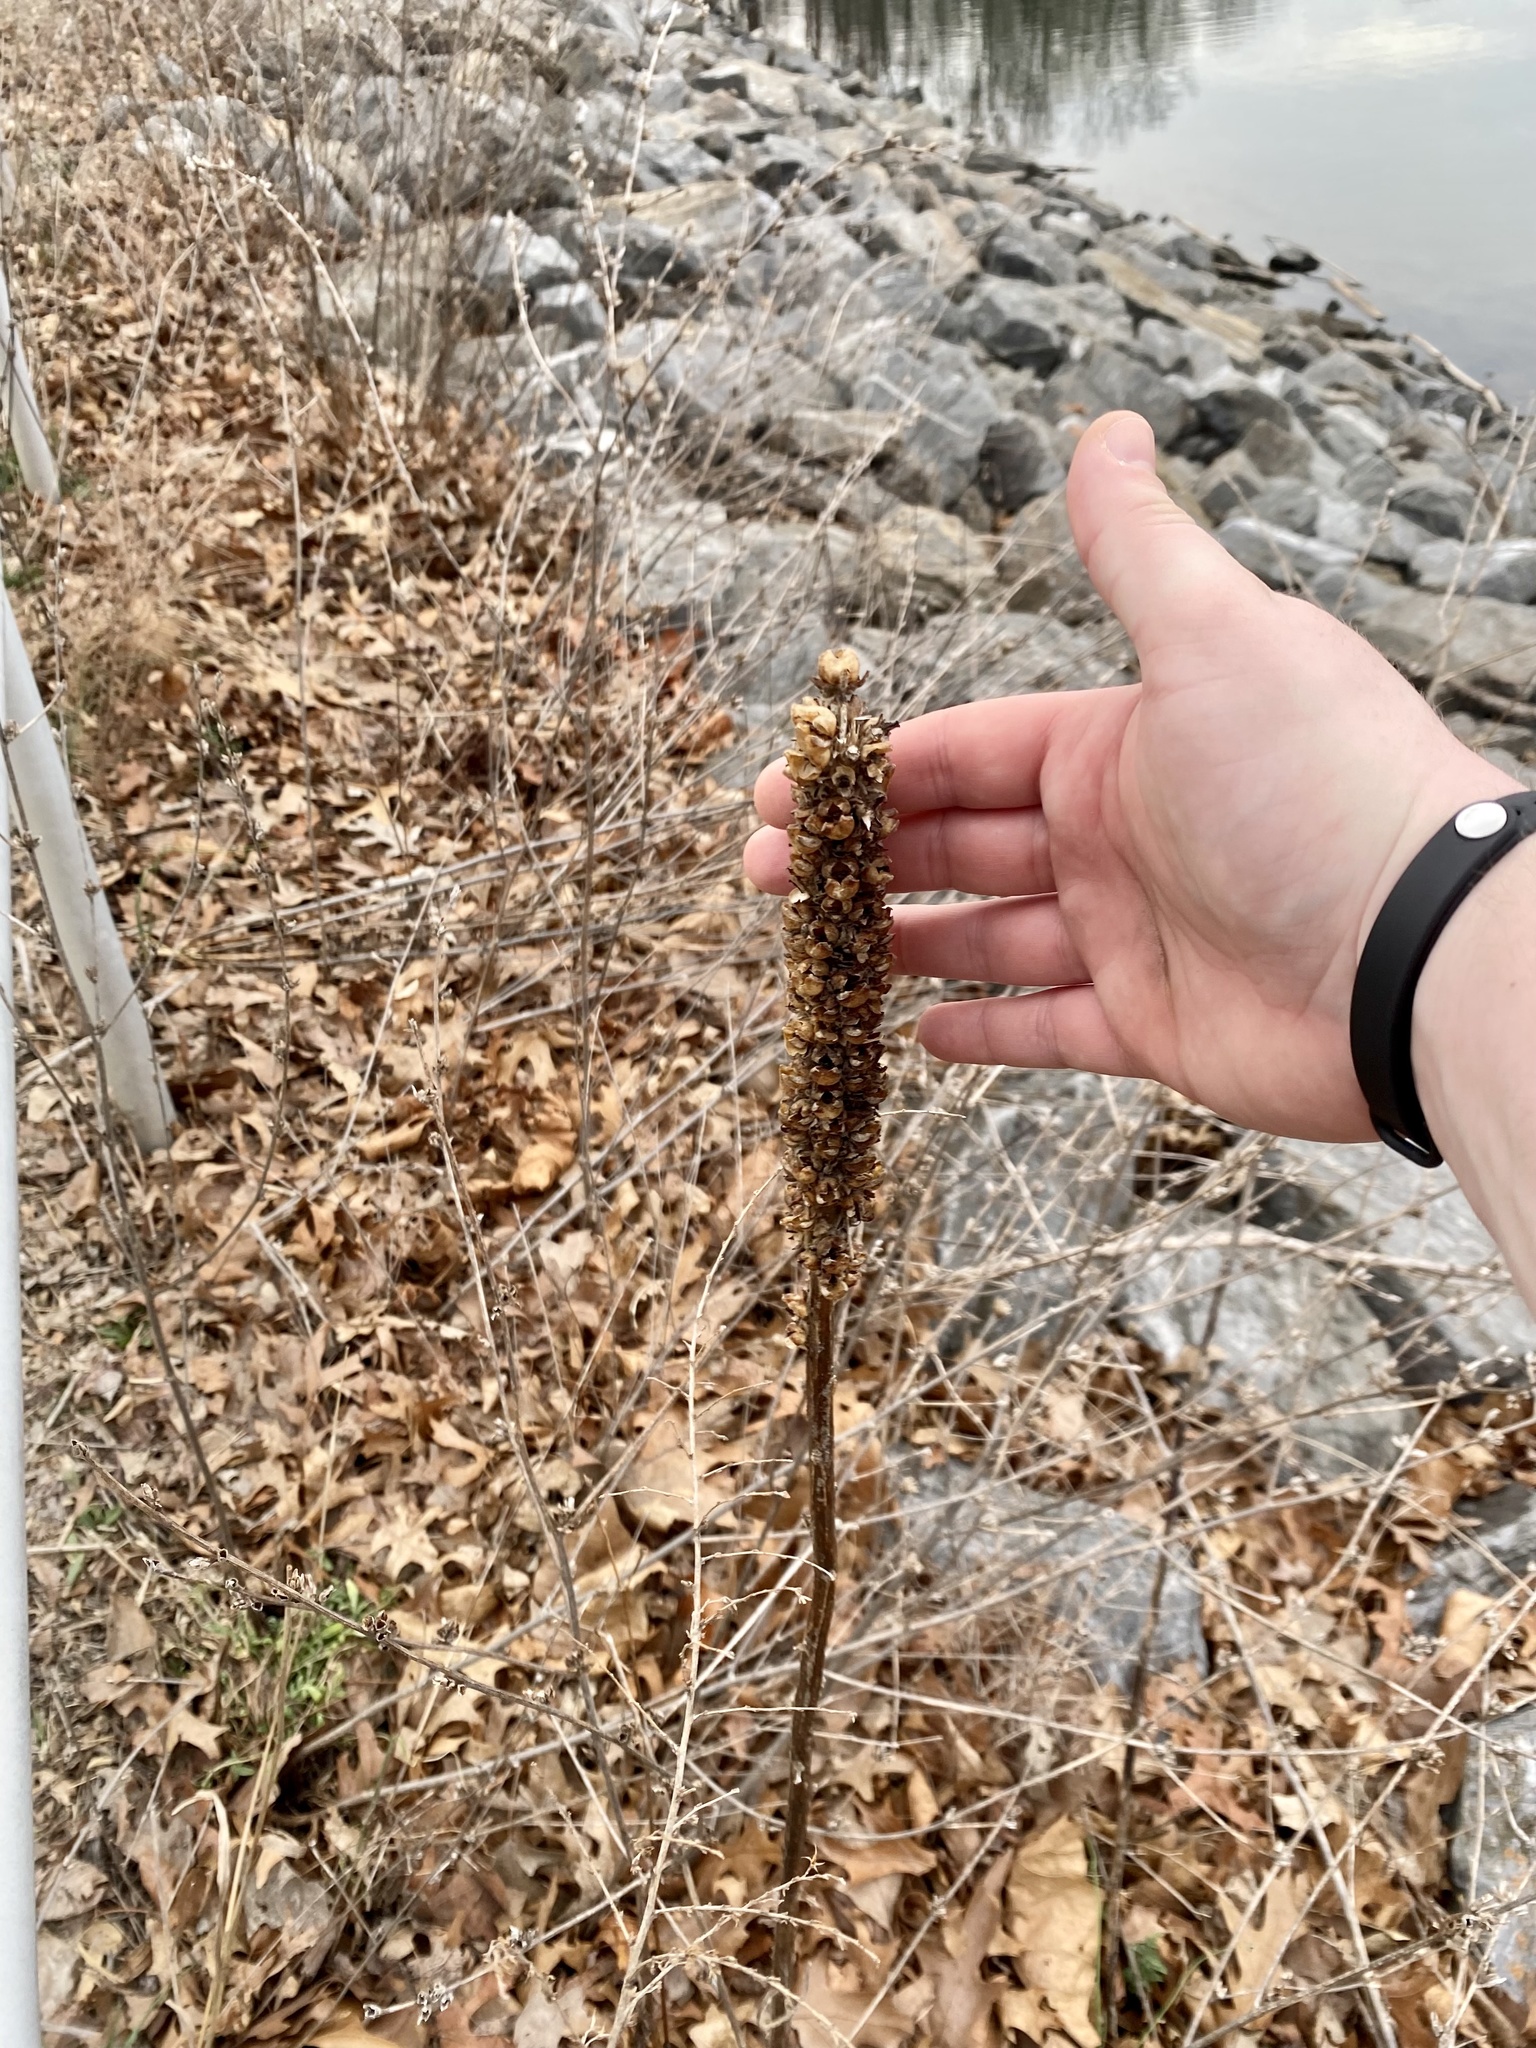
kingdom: Plantae
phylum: Tracheophyta
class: Magnoliopsida
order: Lamiales
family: Scrophulariaceae
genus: Verbascum
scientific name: Verbascum thapsus
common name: Common mullein
